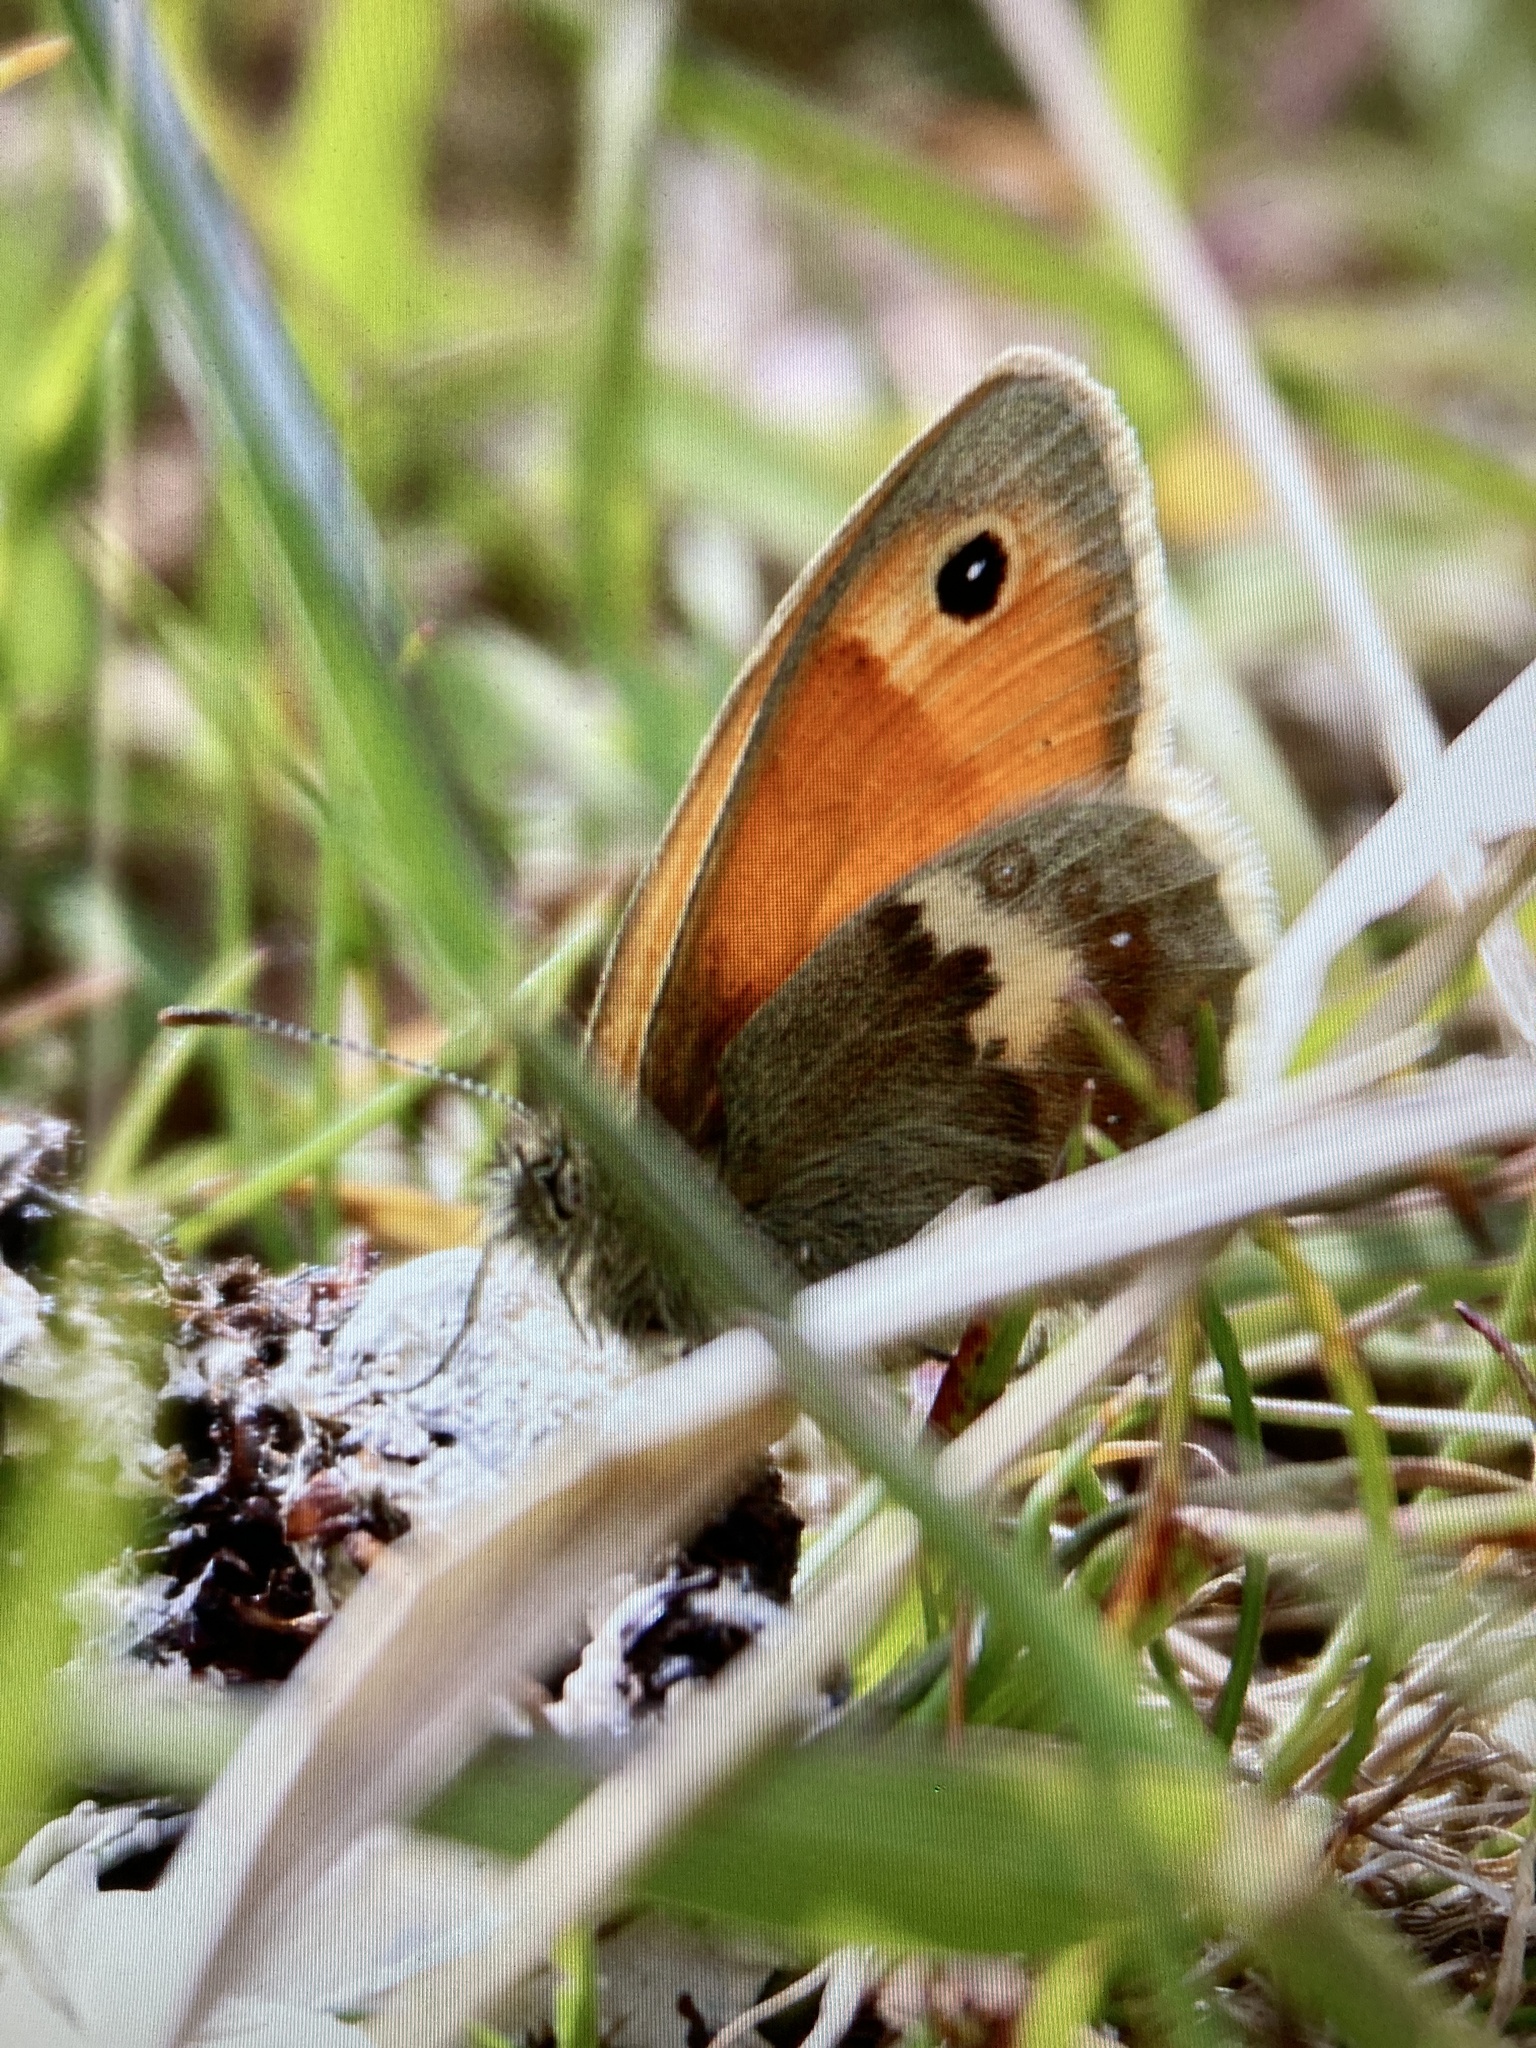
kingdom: Animalia
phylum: Arthropoda
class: Insecta
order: Lepidoptera
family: Nymphalidae
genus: Coenonympha
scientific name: Coenonympha pamphilus
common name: Small heath
